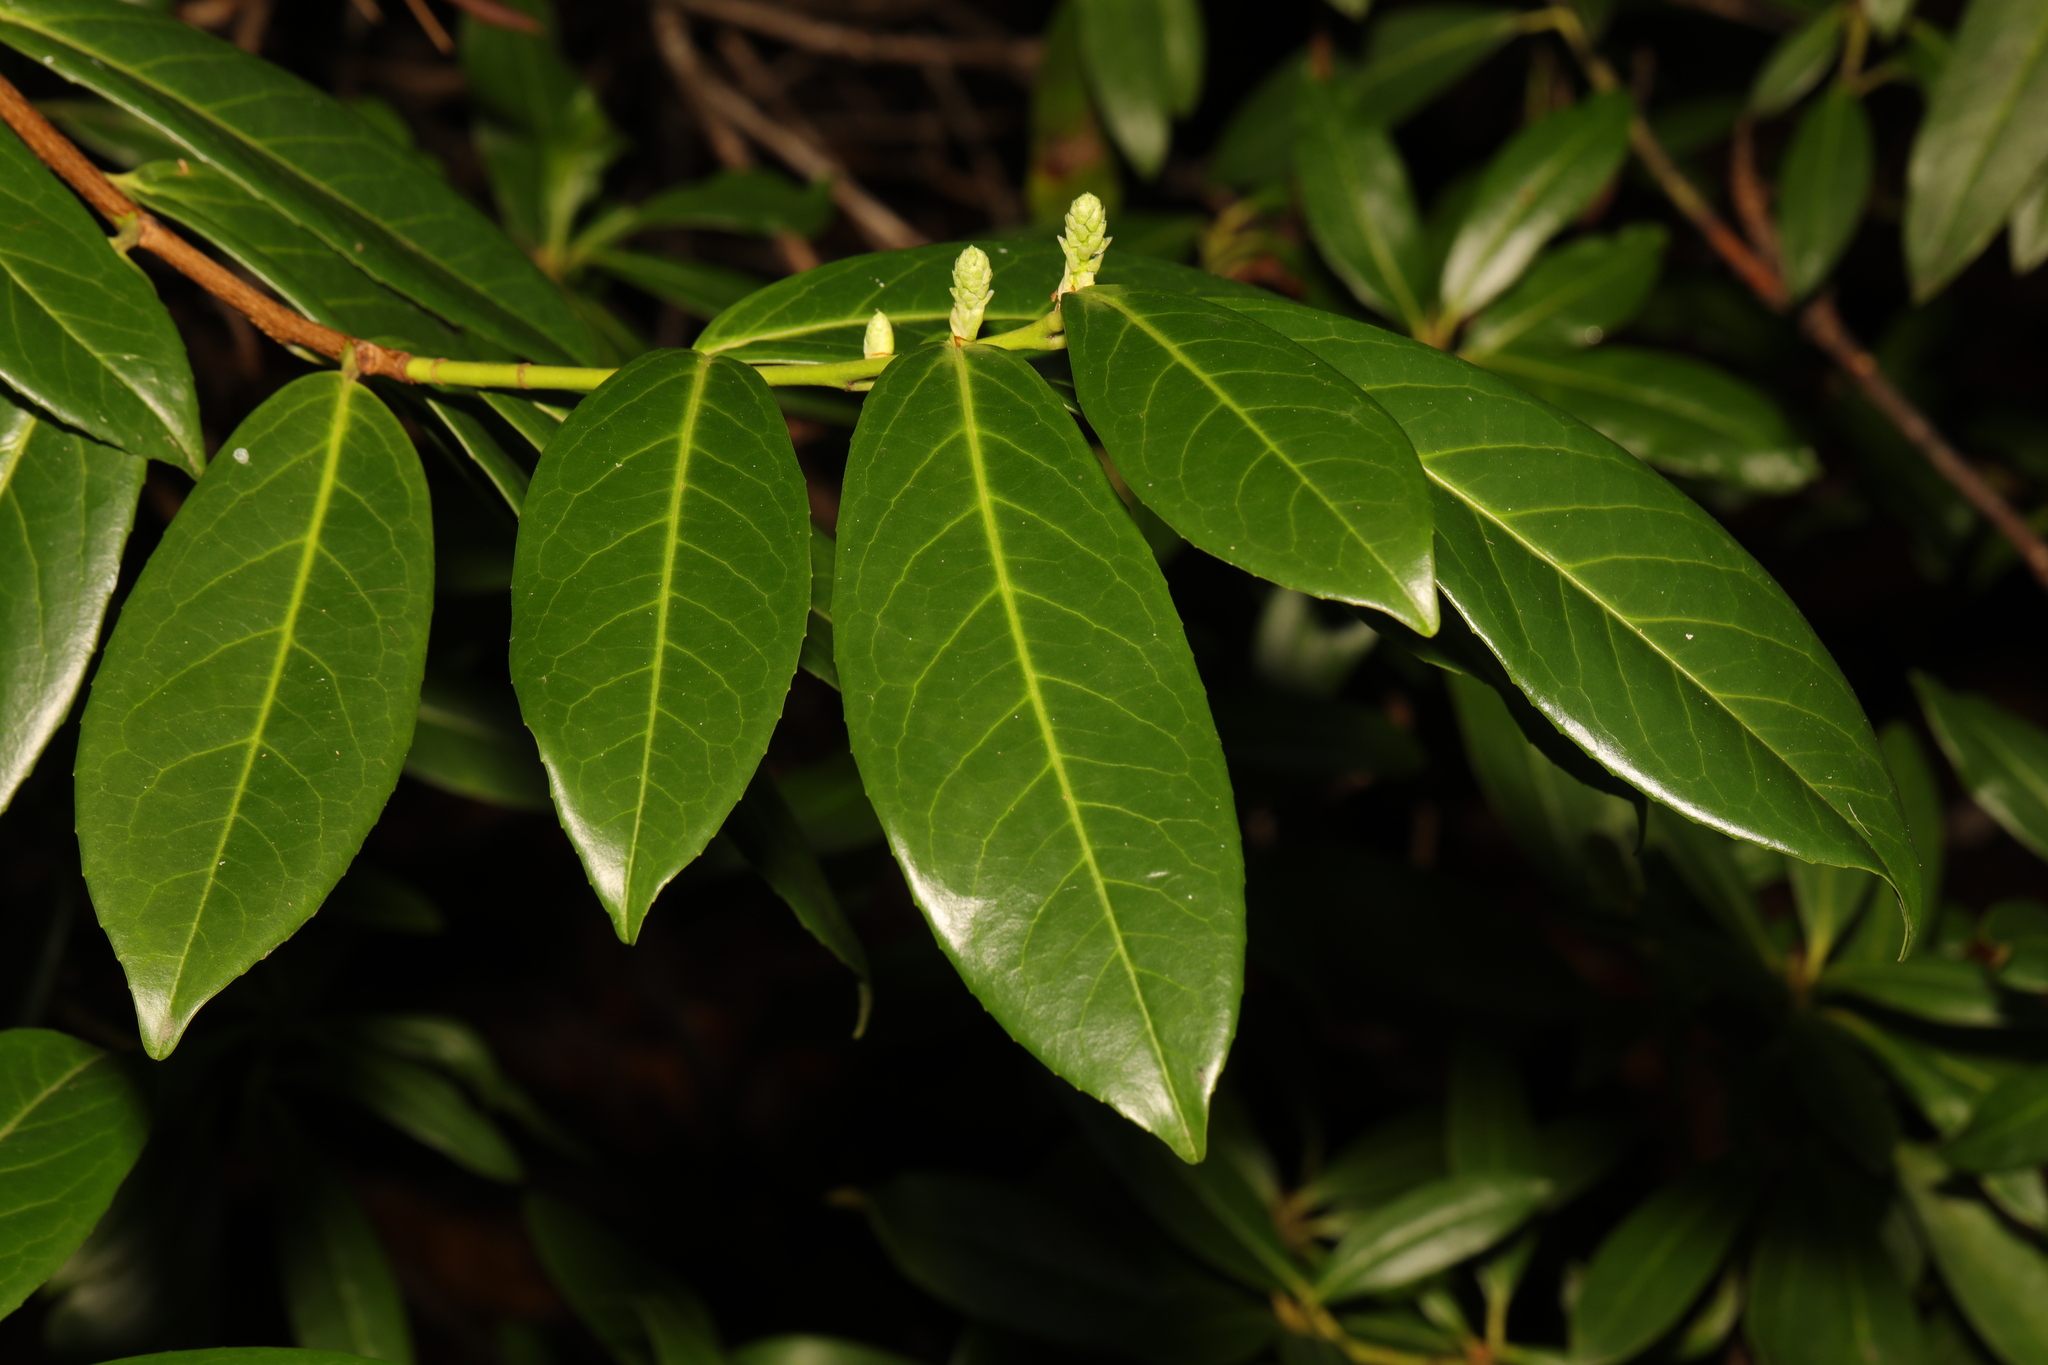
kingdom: Plantae
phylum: Tracheophyta
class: Magnoliopsida
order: Rosales
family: Rosaceae
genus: Prunus
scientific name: Prunus laurocerasus
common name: Cherry laurel
